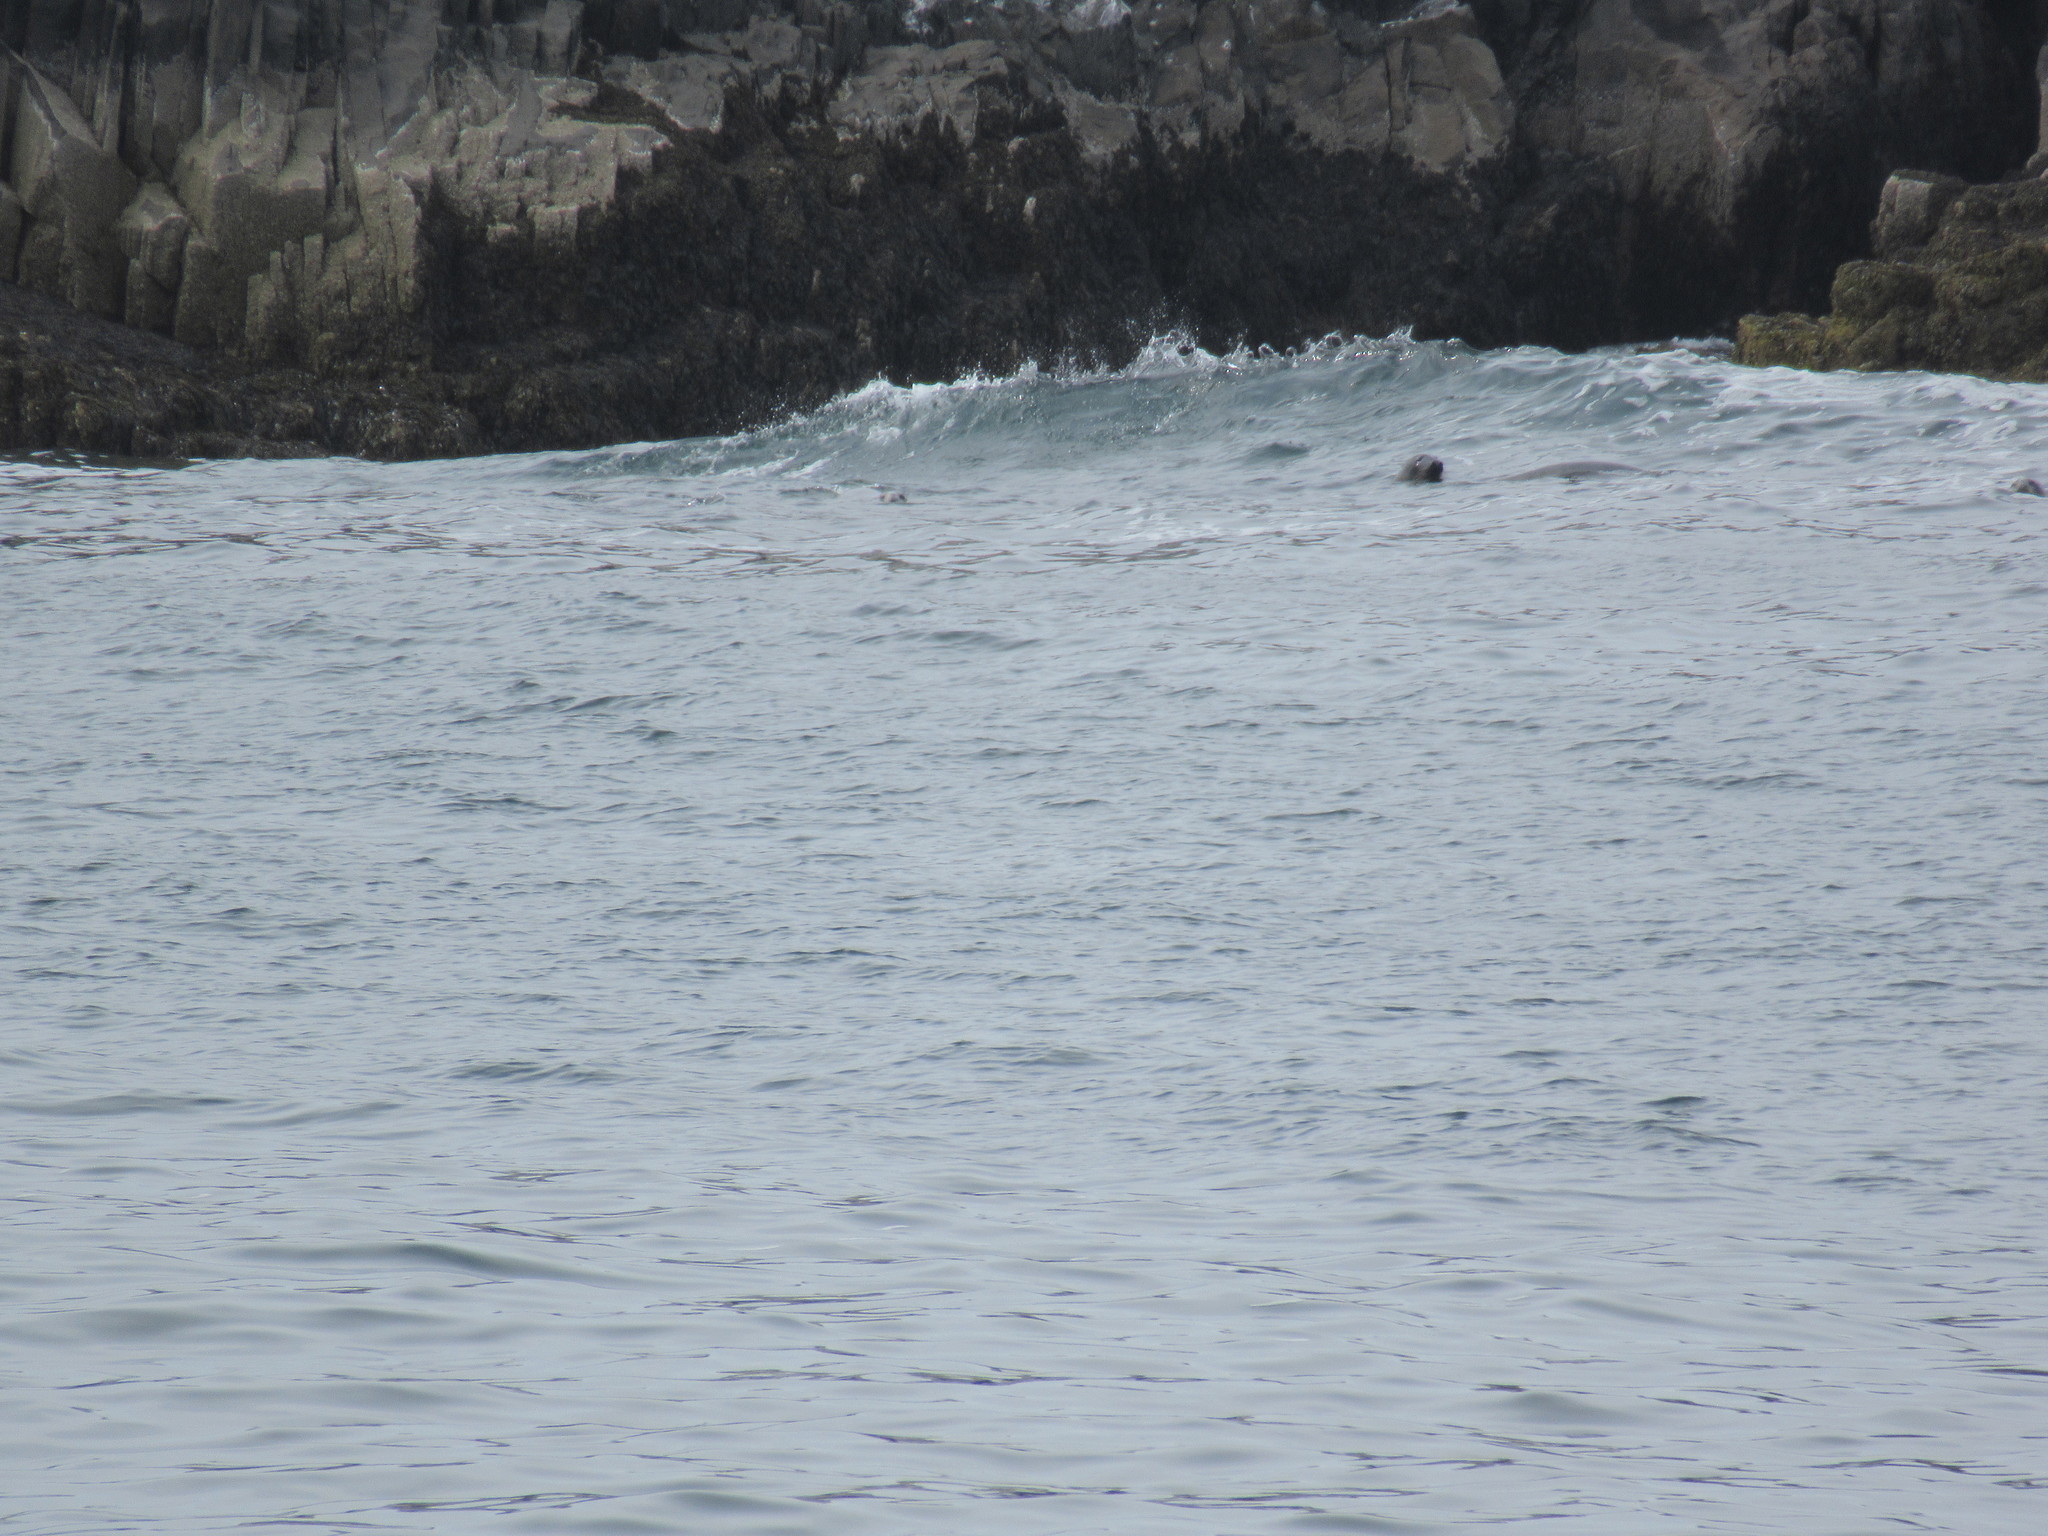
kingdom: Animalia
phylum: Chordata
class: Mammalia
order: Carnivora
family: Phocidae
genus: Halichoerus
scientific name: Halichoerus grypus
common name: Grey seal
